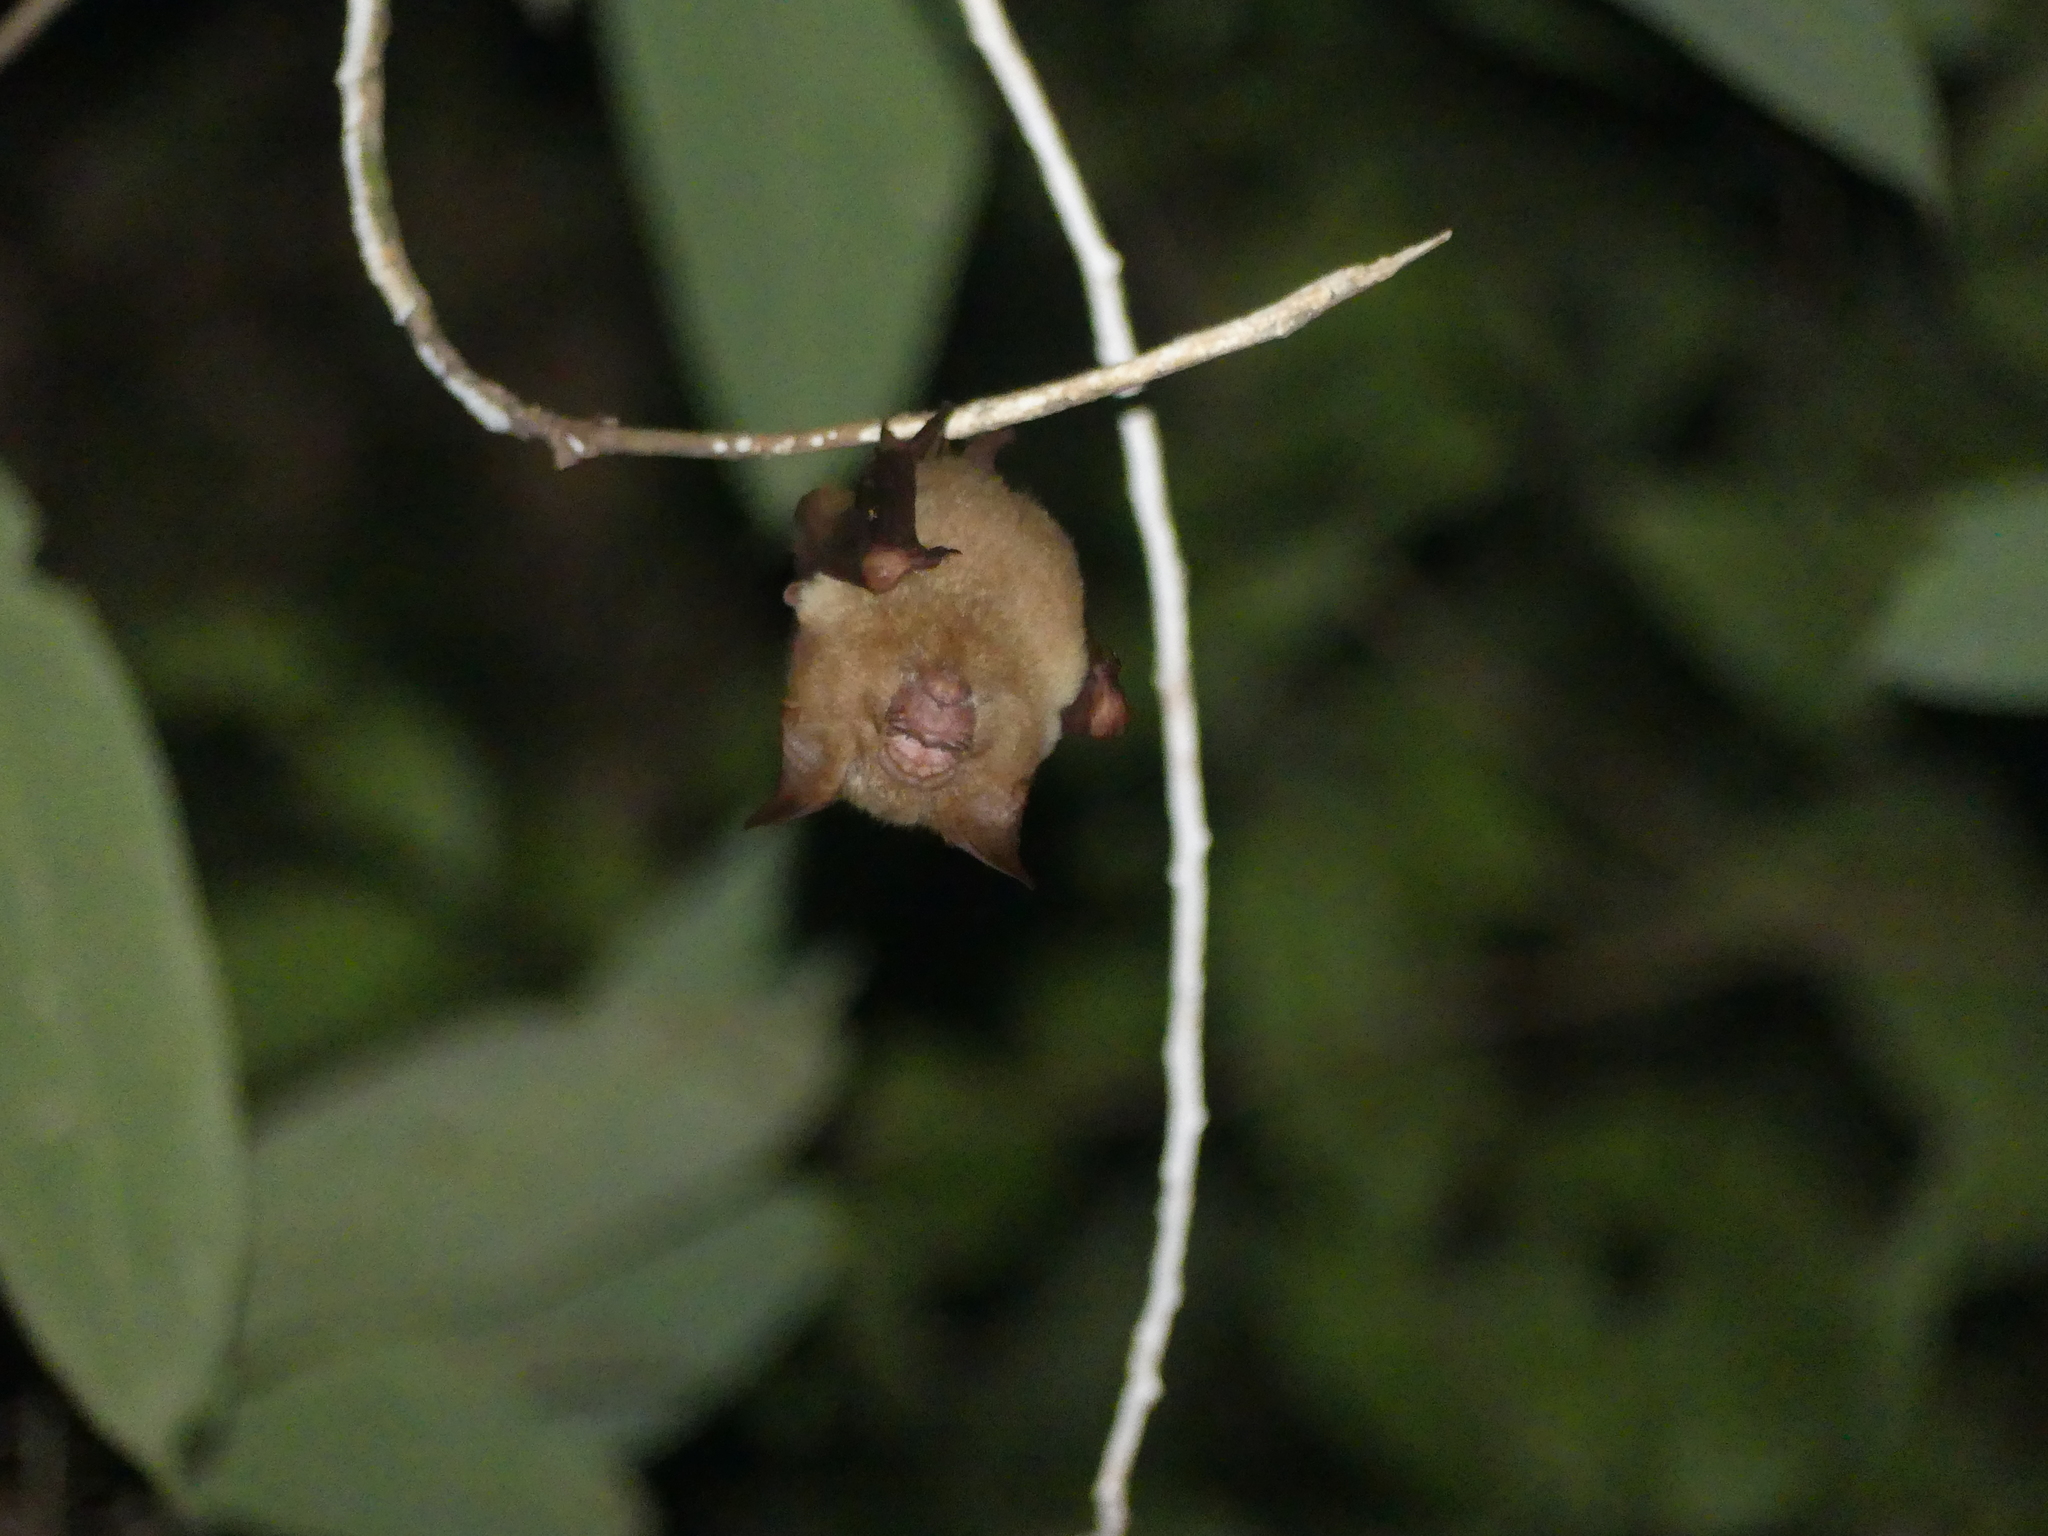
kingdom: Animalia
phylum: Chordata
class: Mammalia
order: Chiroptera
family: Hipposideridae
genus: Hipposideros
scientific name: Hipposideros diadema
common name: Diadem leaf-nosed bat
